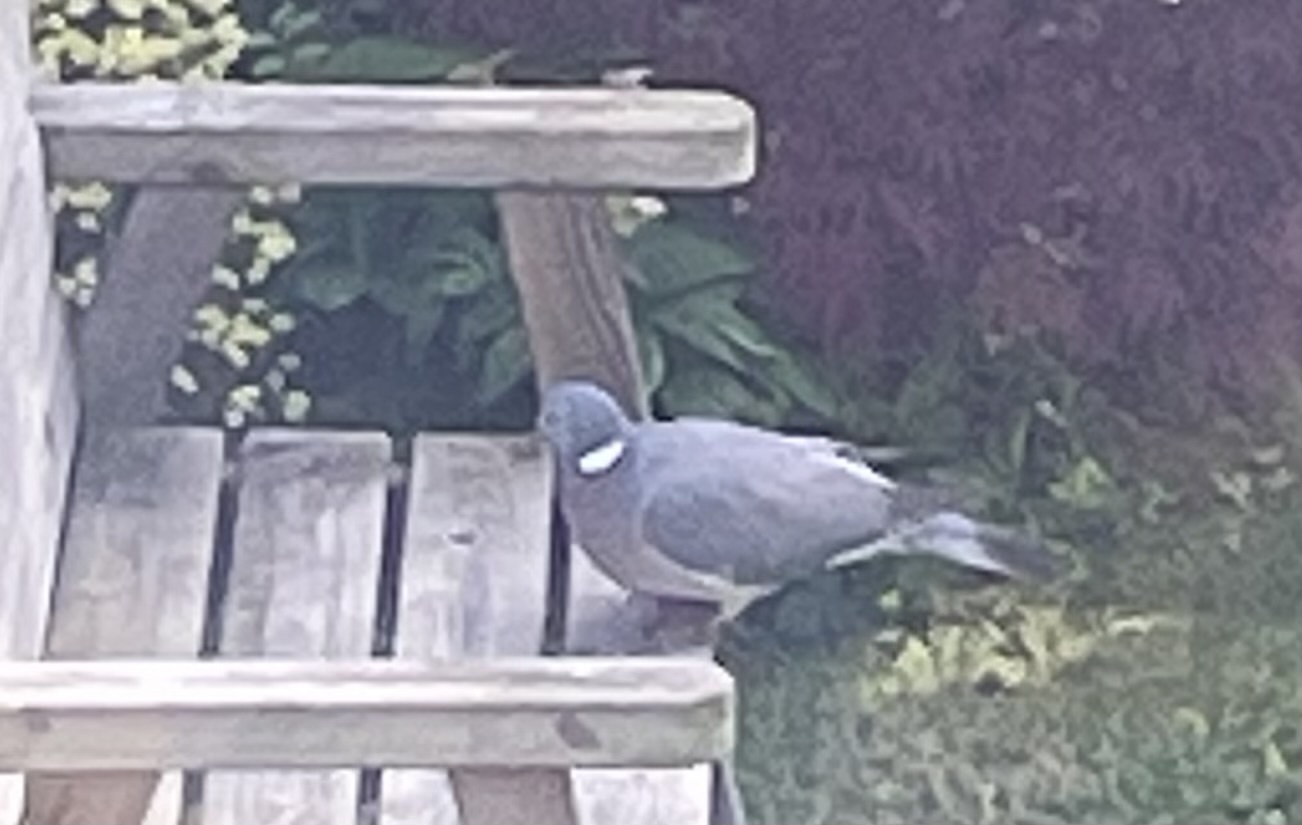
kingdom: Animalia
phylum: Chordata
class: Aves
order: Columbiformes
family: Columbidae
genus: Columba
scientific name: Columba palumbus
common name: Common wood pigeon
